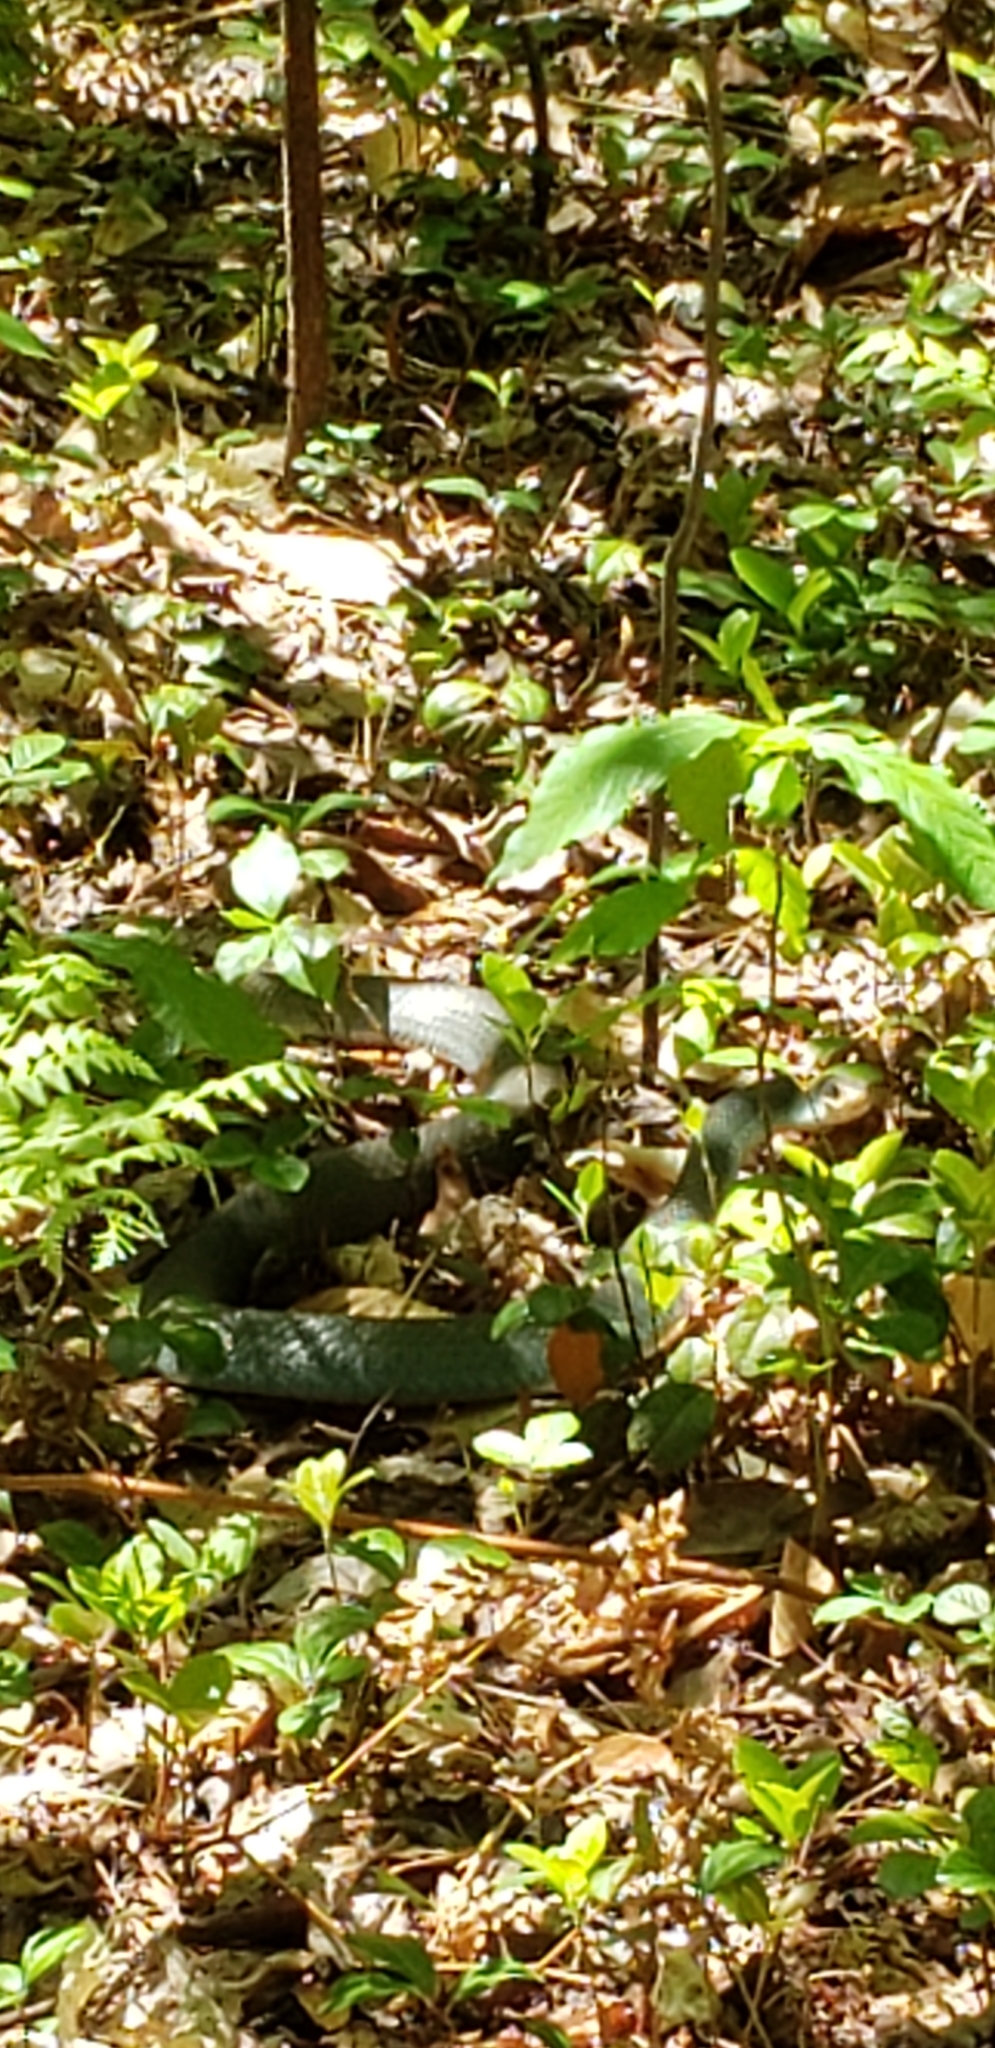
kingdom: Animalia
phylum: Chordata
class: Squamata
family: Colubridae
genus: Coluber
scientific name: Coluber constrictor
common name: Eastern racer
